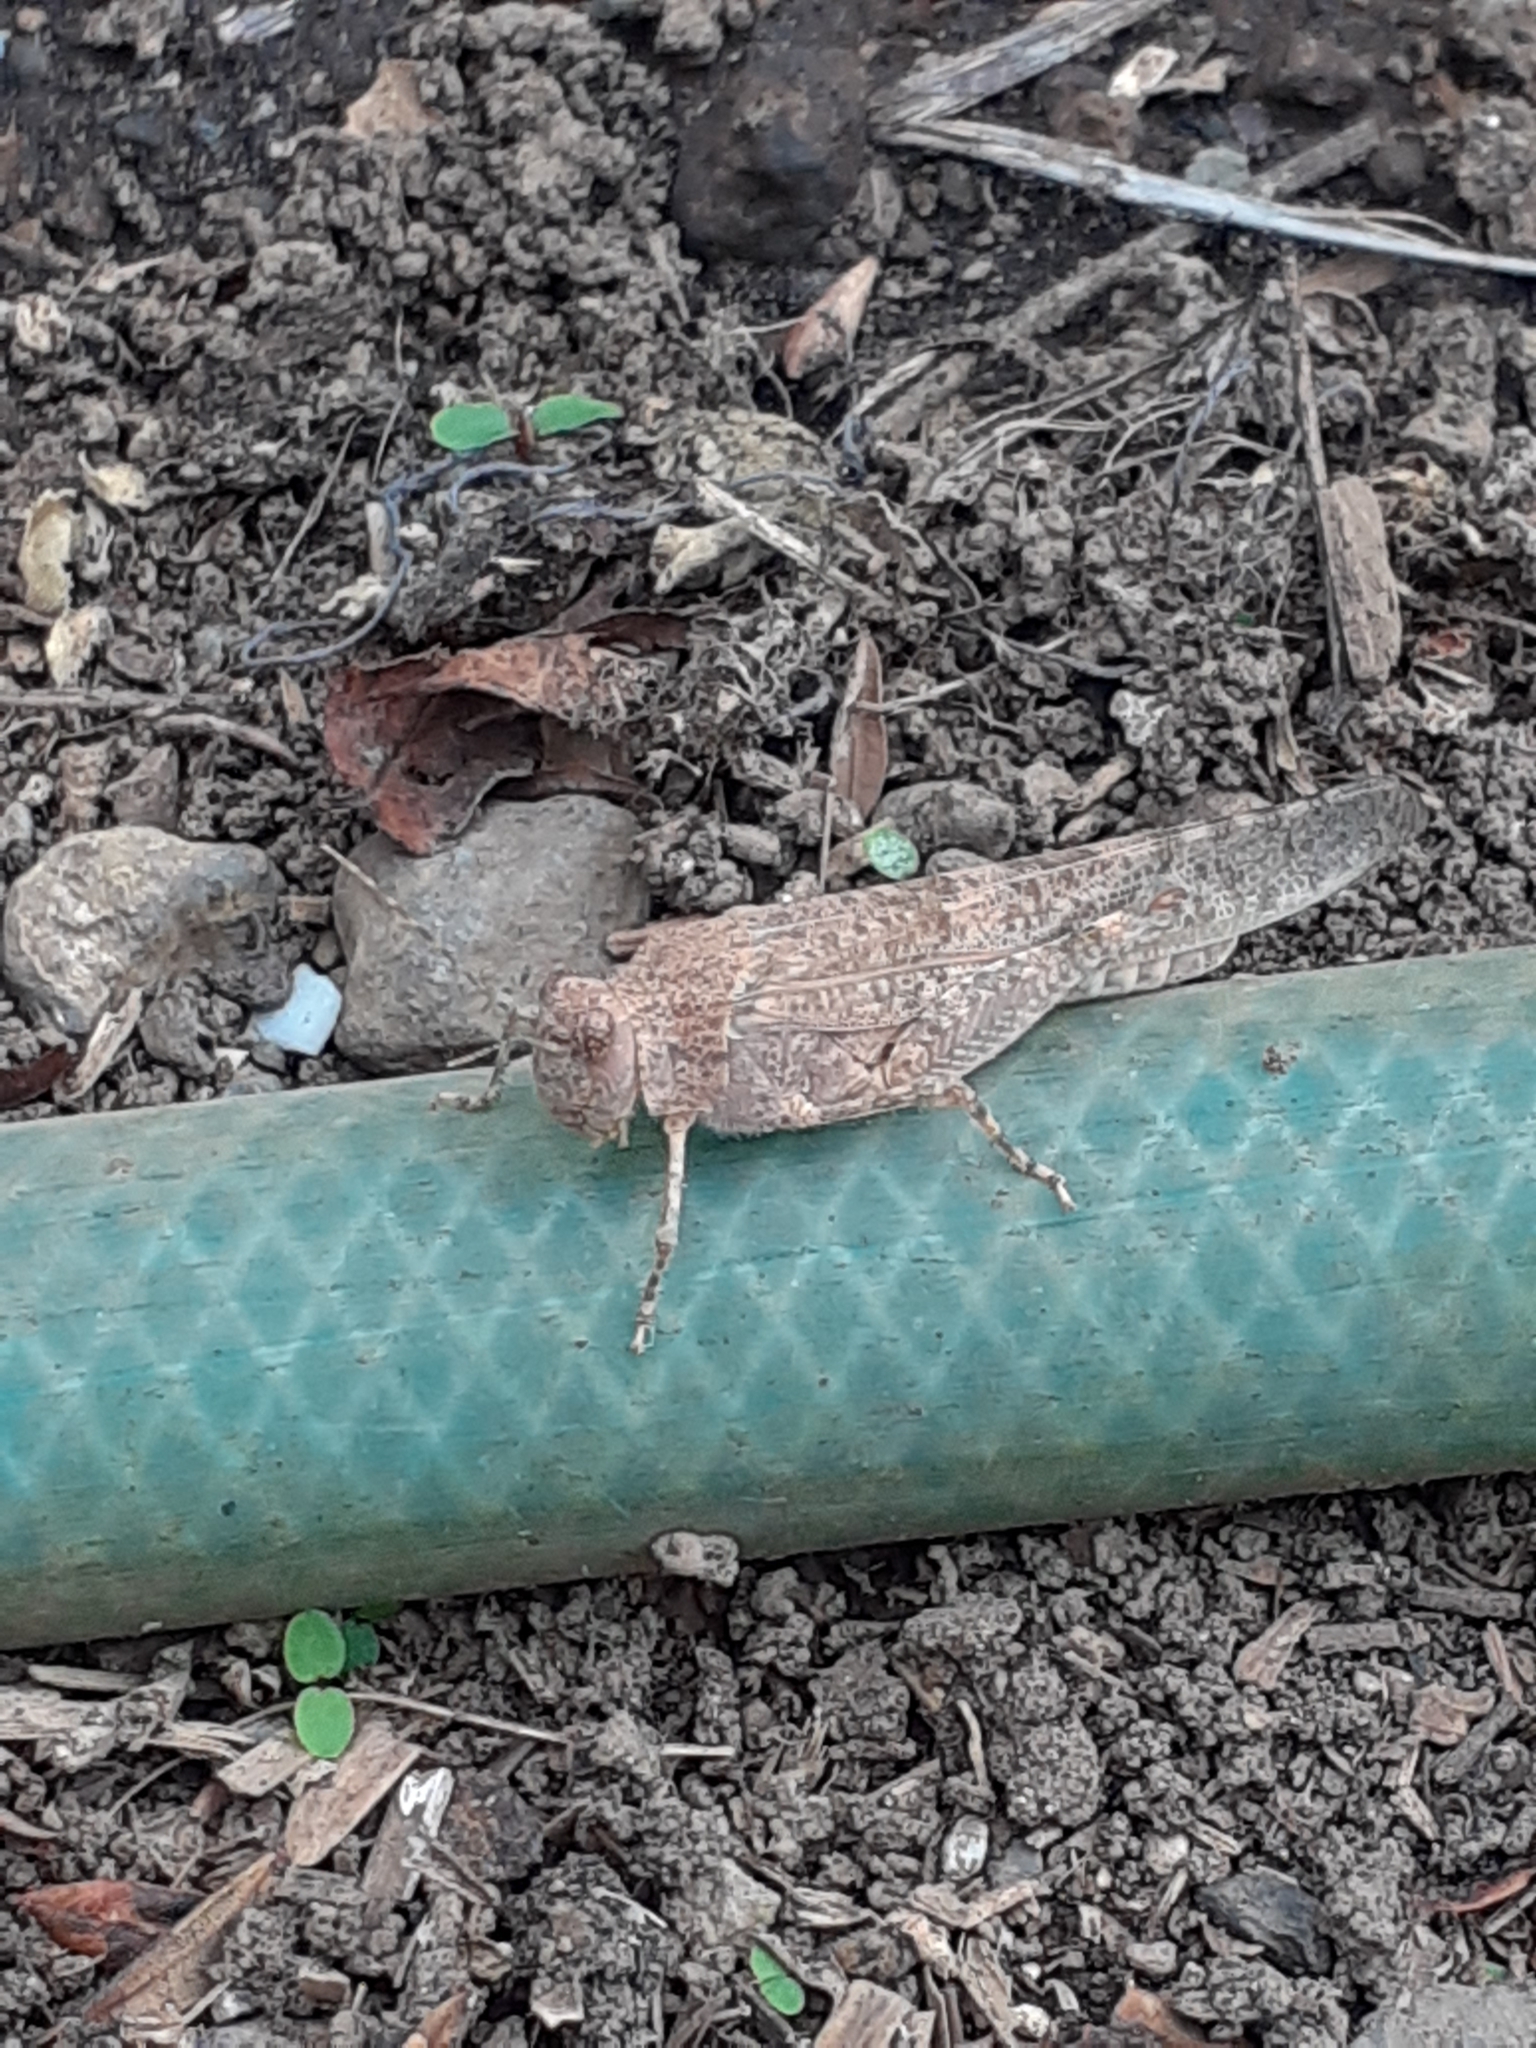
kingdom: Animalia
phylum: Arthropoda
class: Insecta
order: Orthoptera
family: Acrididae
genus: Sphingonotus
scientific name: Sphingonotus rubescens
